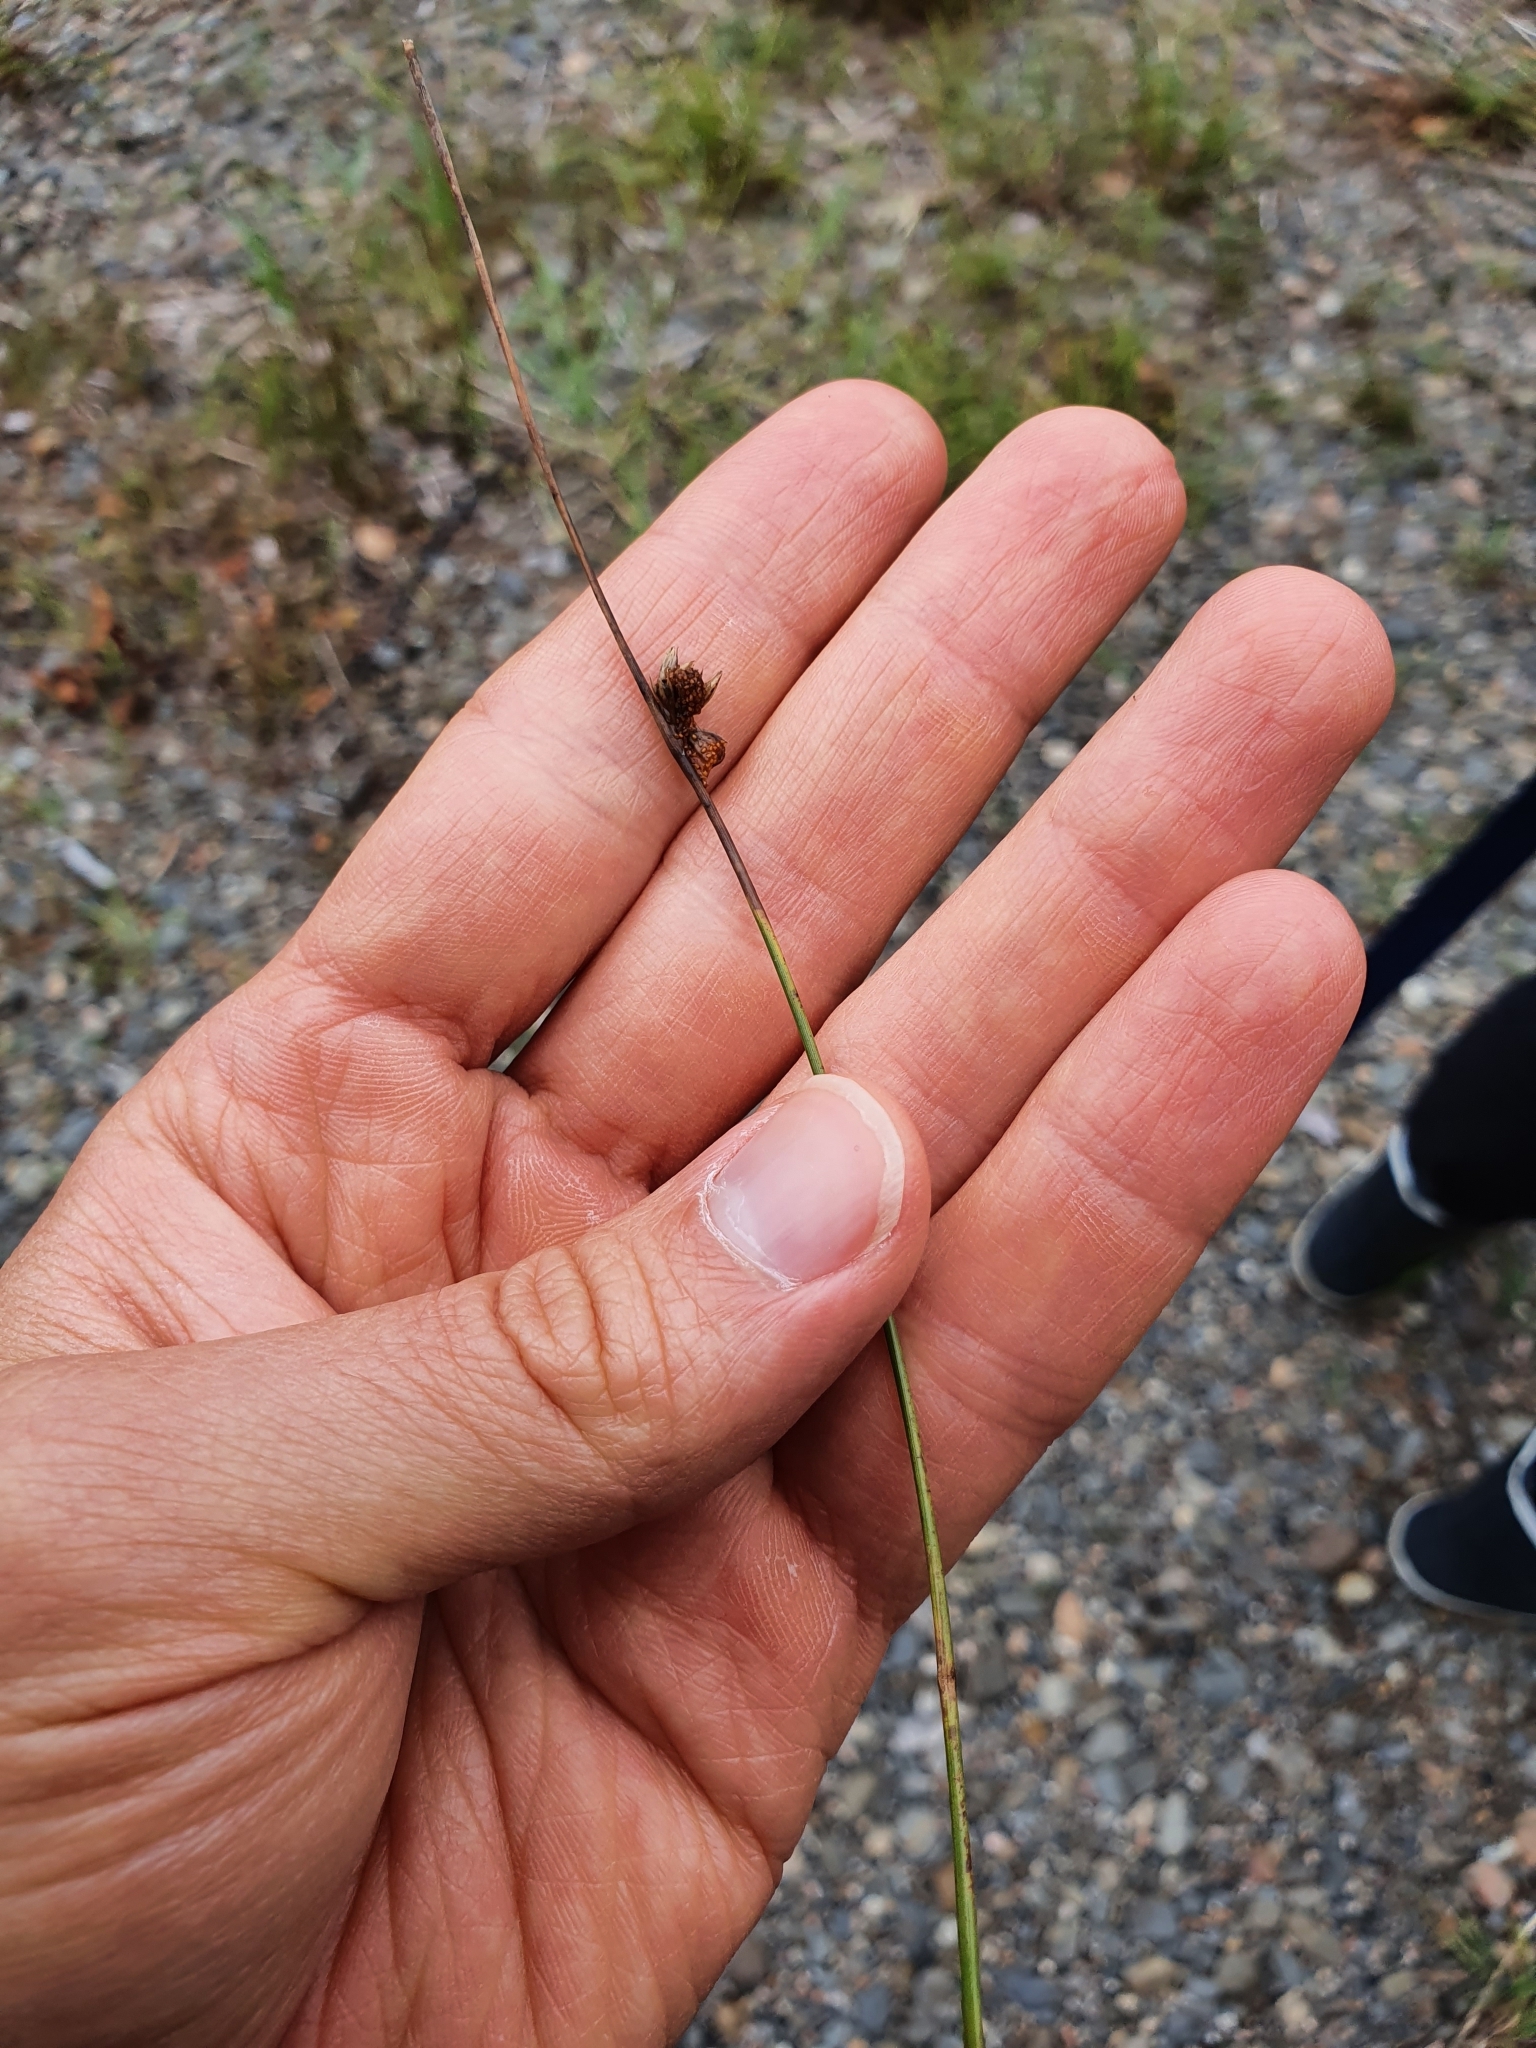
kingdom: Plantae
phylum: Tracheophyta
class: Liliopsida
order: Poales
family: Juncaceae
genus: Juncus
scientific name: Juncus filiformis
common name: Thread rush
